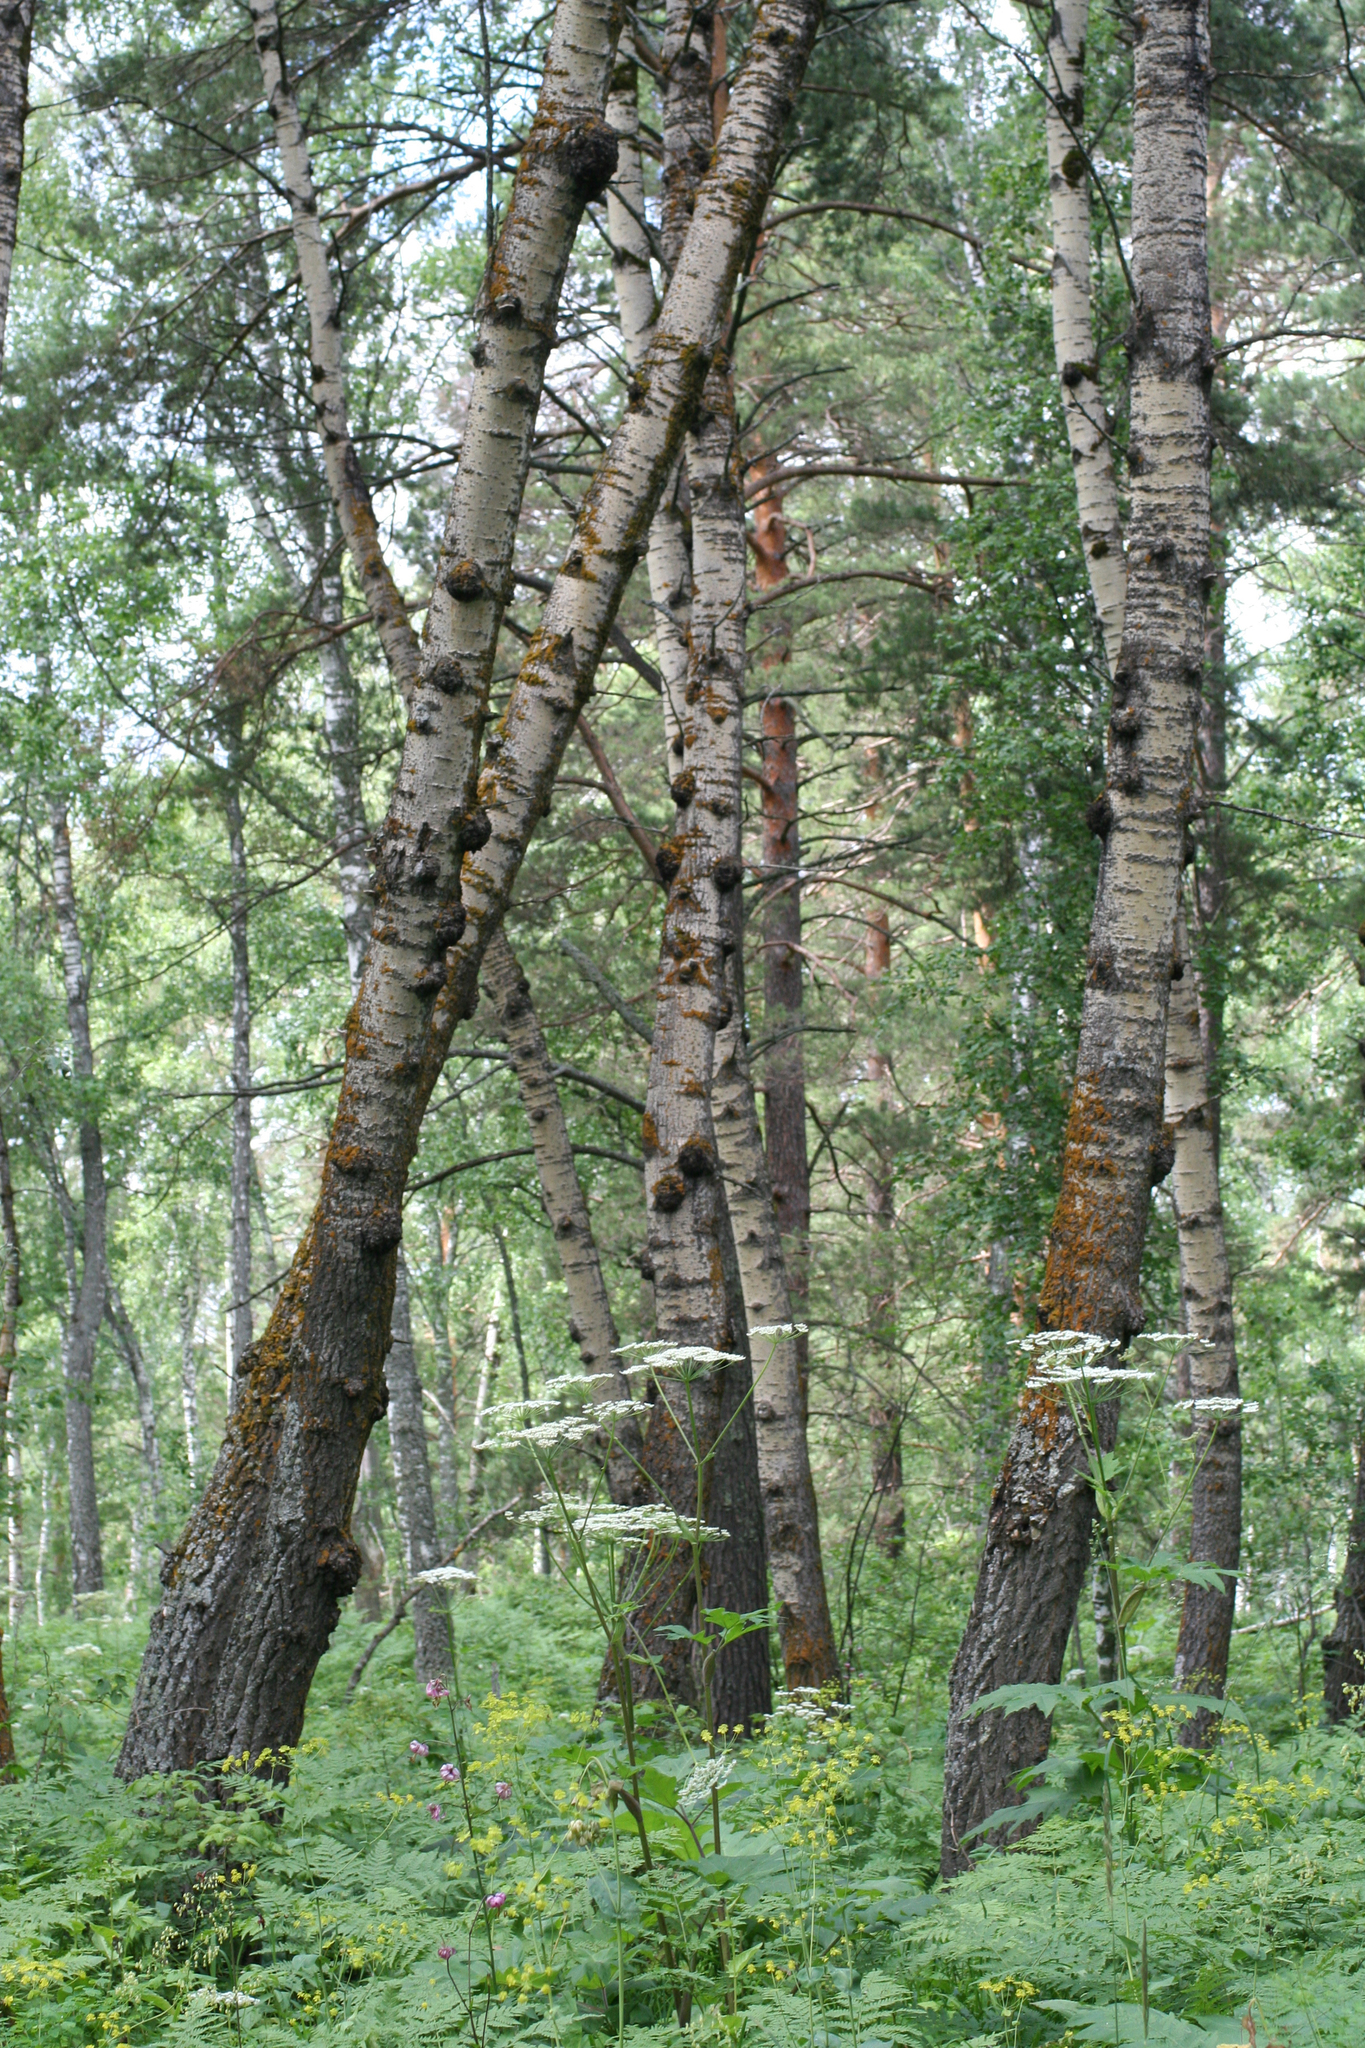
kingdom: Plantae
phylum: Tracheophyta
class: Magnoliopsida
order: Malpighiales
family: Salicaceae
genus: Populus
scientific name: Populus tremula
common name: European aspen
